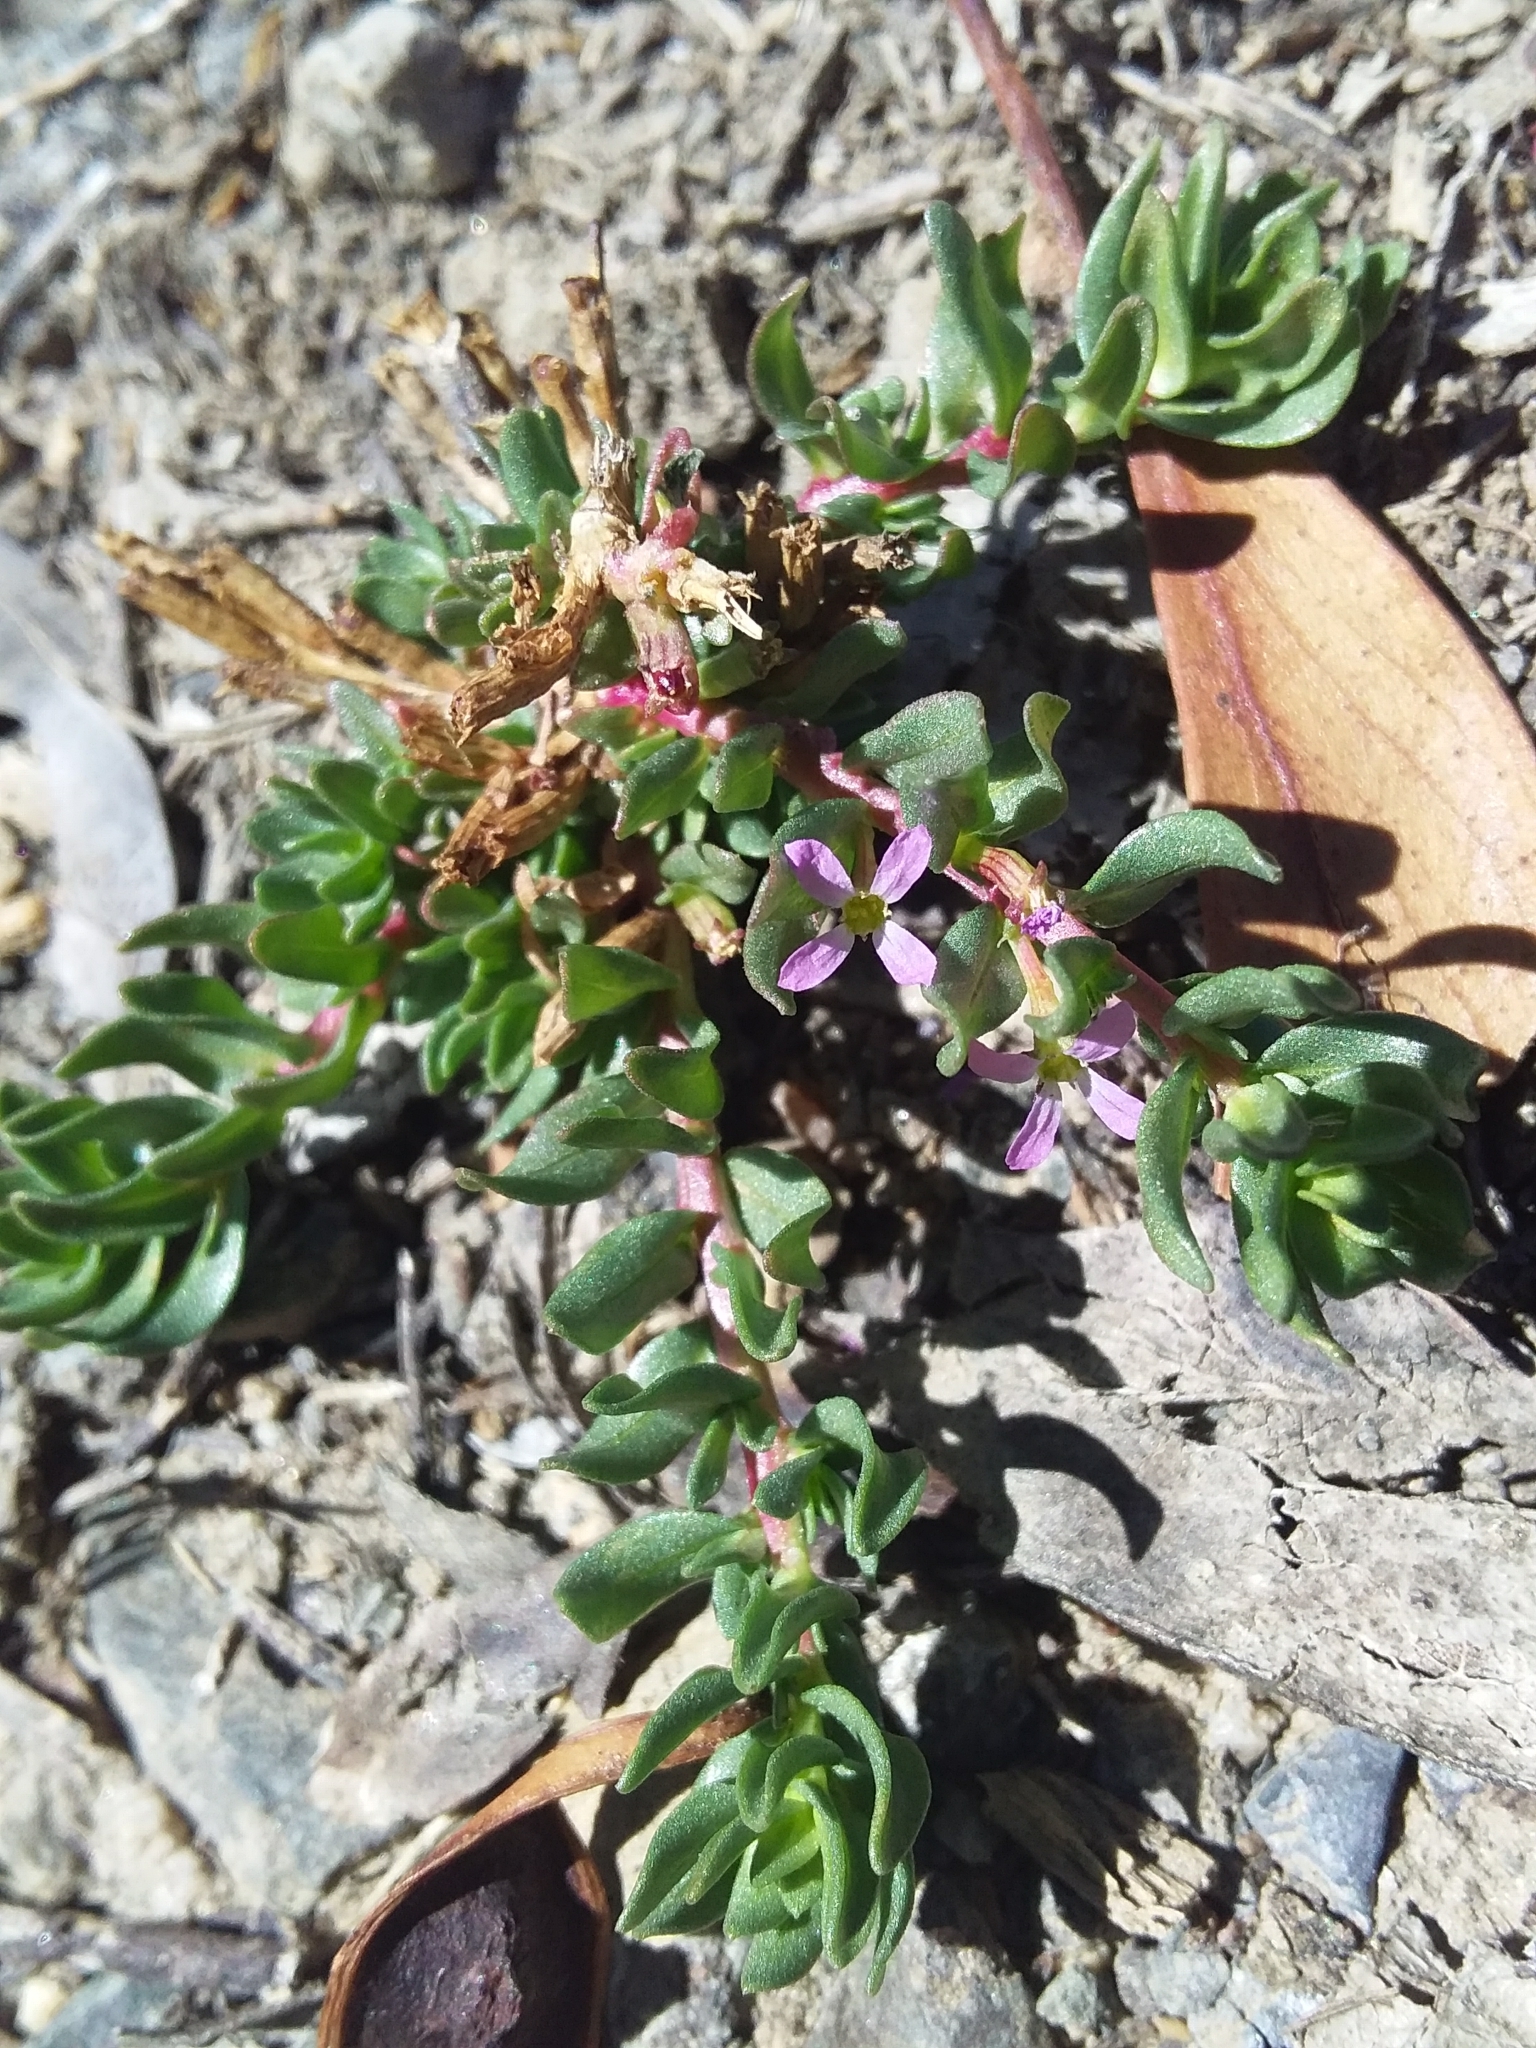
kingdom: Plantae
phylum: Tracheophyta
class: Magnoliopsida
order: Myrtales
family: Lythraceae
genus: Lythrum
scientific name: Lythrum hyssopifolia
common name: Grass-poly
